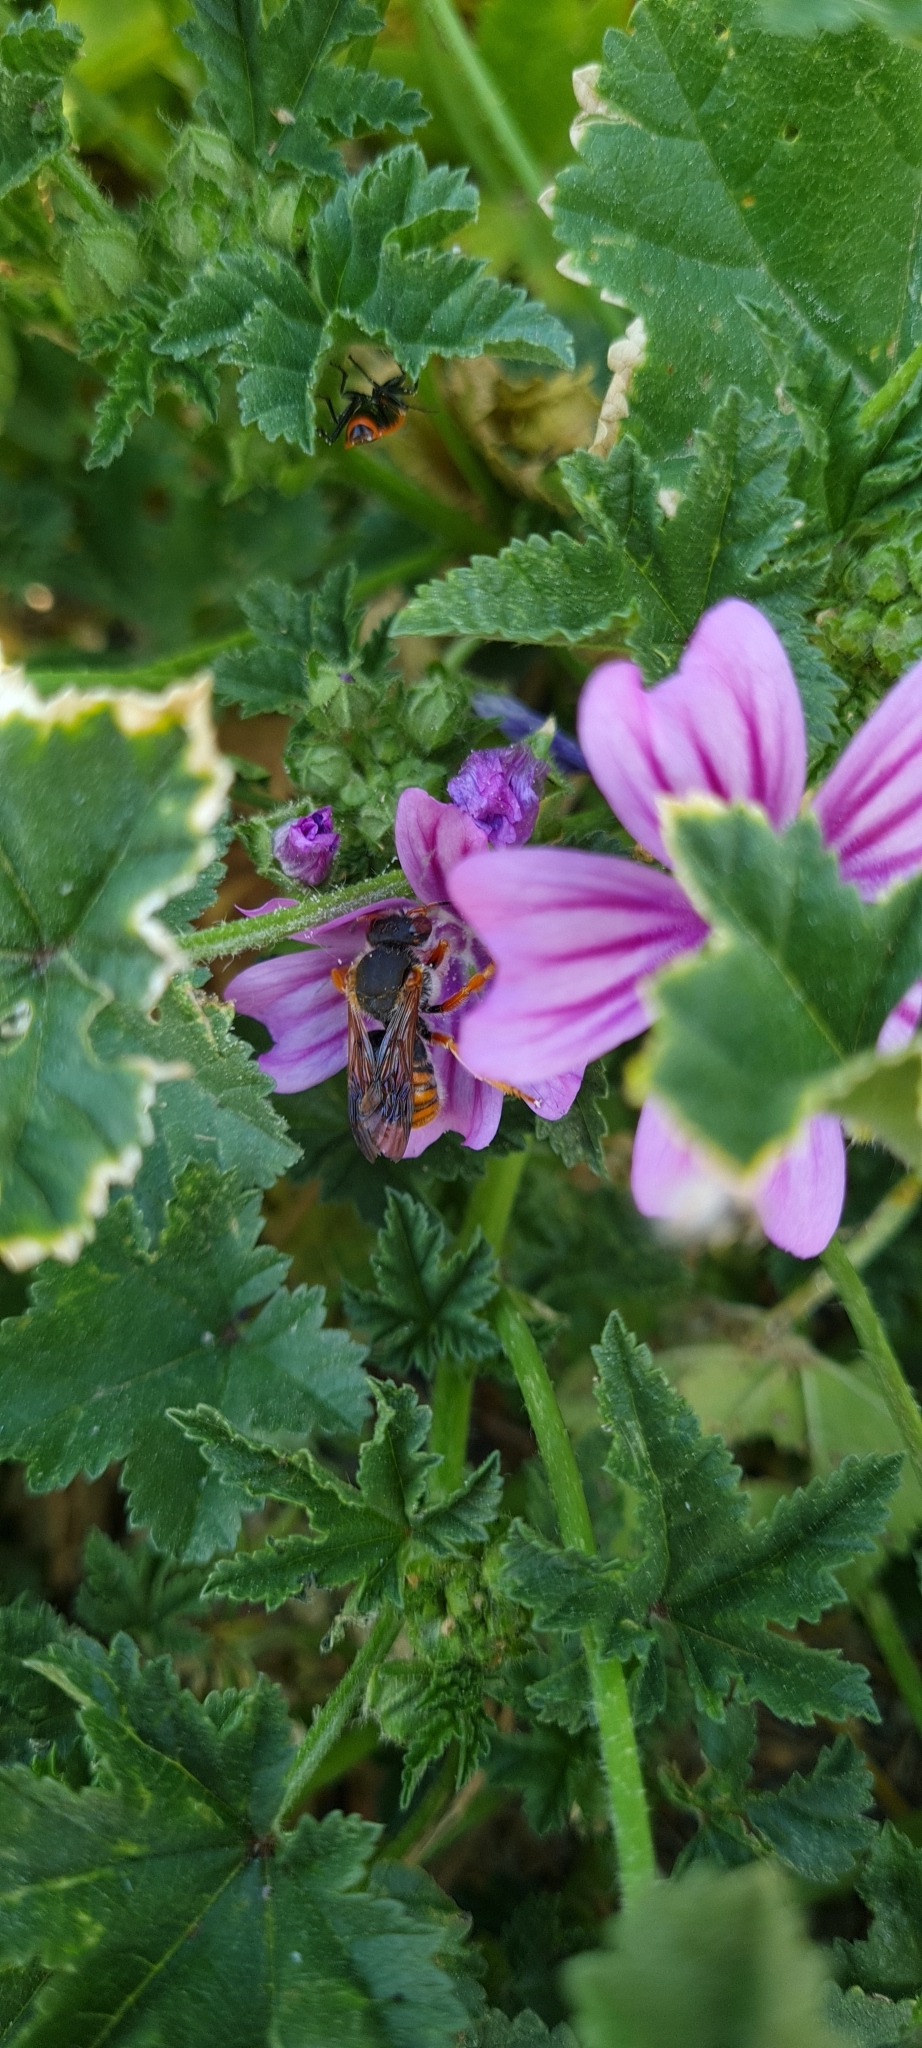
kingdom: Animalia
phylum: Arthropoda
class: Insecta
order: Hymenoptera
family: Megachilidae
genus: Rhodanthidium
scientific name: Rhodanthidium sticticum
